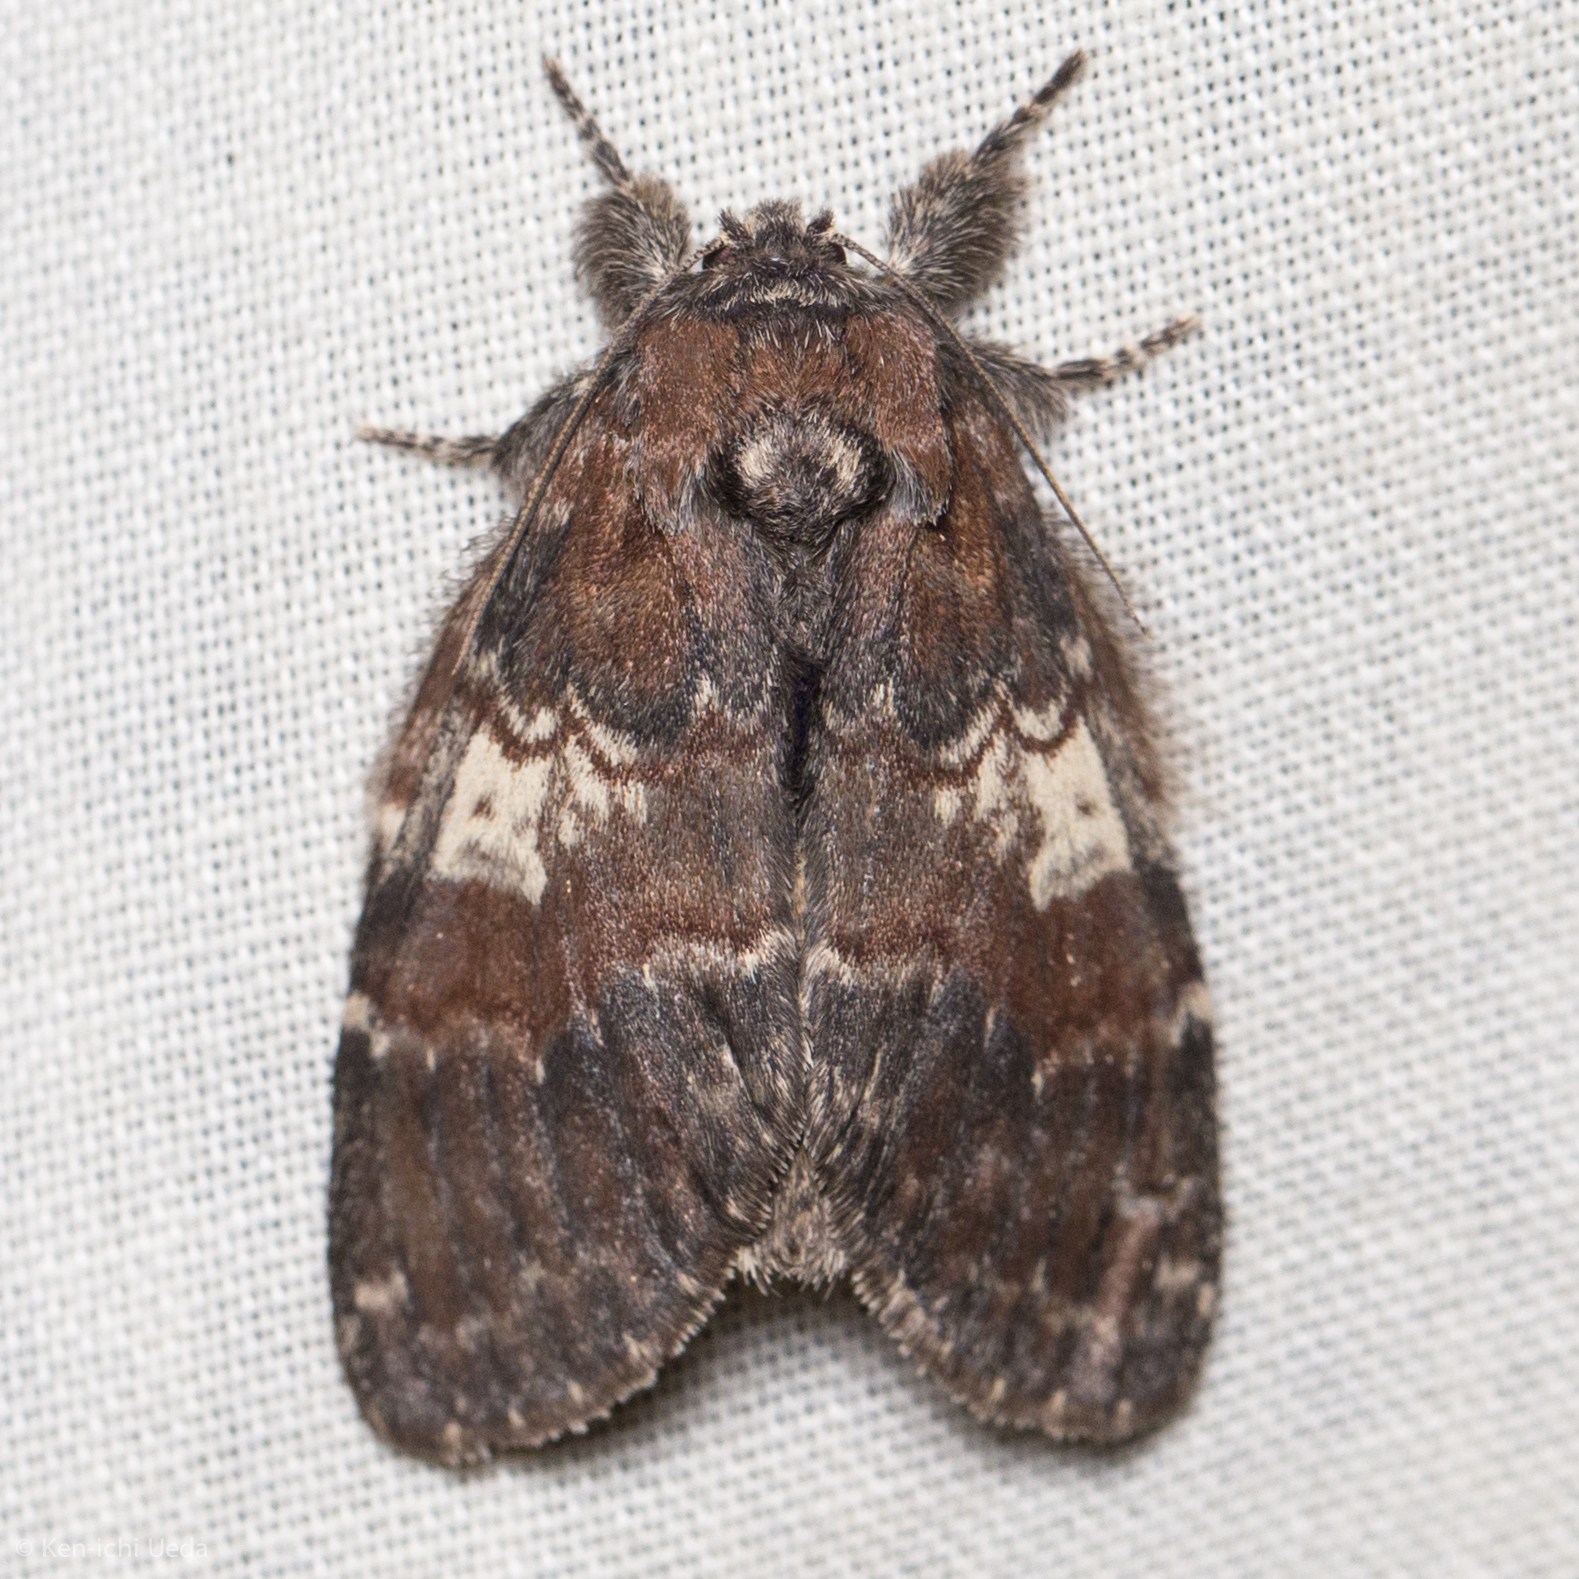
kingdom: Animalia
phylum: Arthropoda
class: Insecta
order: Lepidoptera
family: Notodontidae
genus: Peridea
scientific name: Peridea ferruginea
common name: Chocolate prominent
